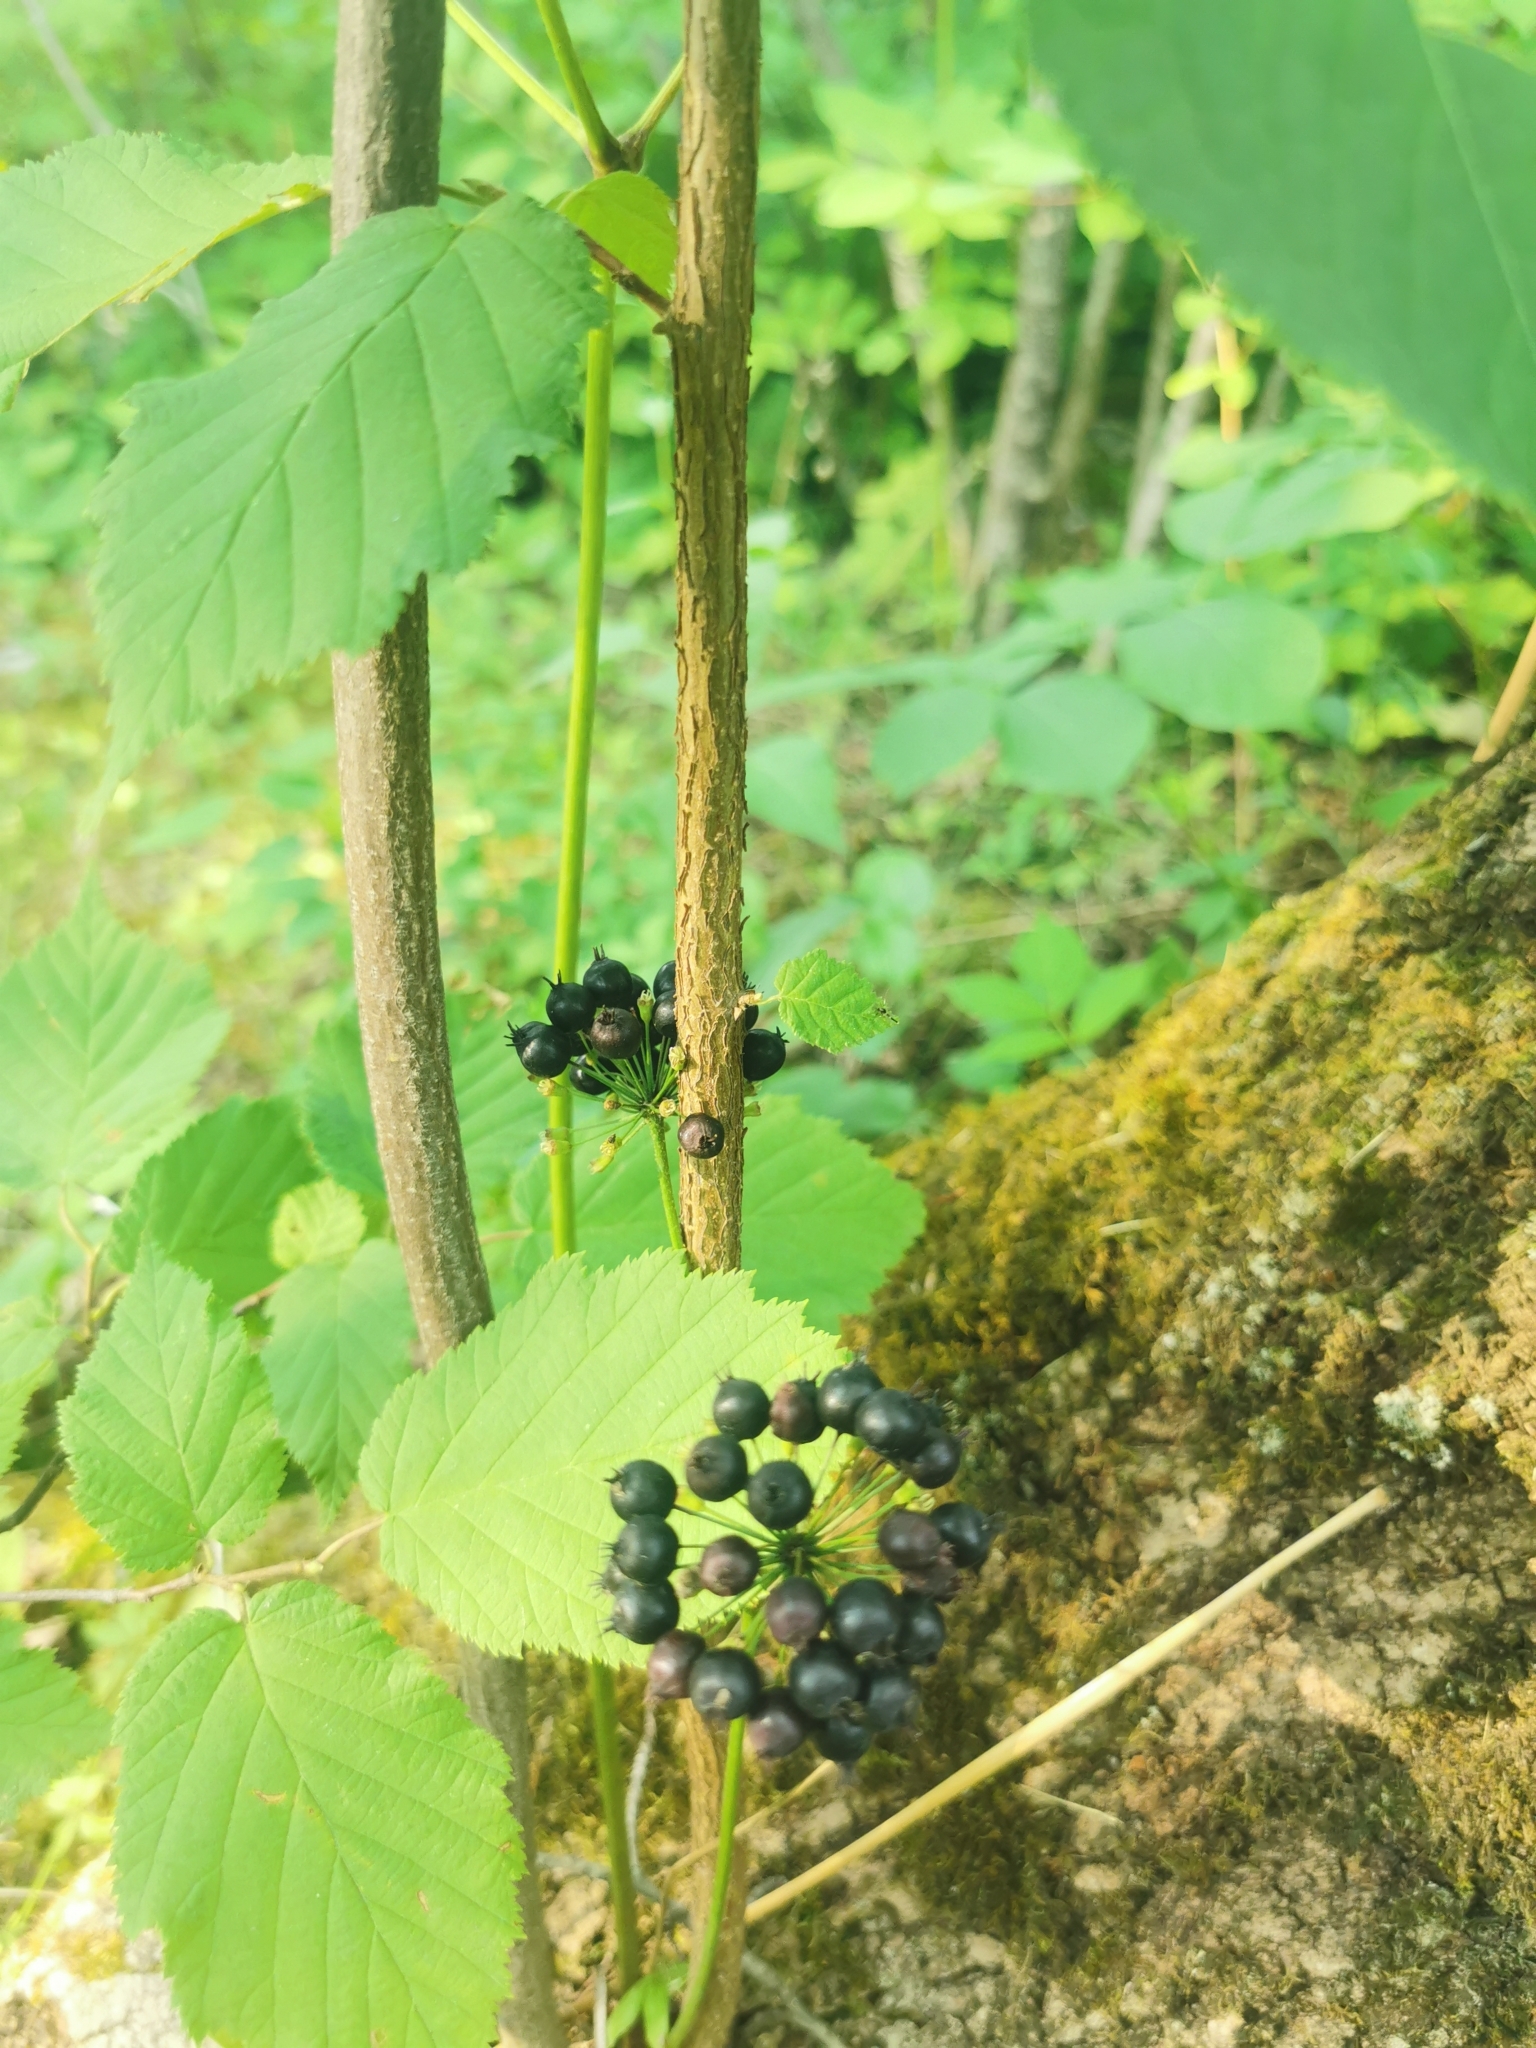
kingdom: Plantae
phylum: Tracheophyta
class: Magnoliopsida
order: Apiales
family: Araliaceae
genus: Aralia
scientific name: Aralia nudicaulis
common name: Wild sarsaparilla
